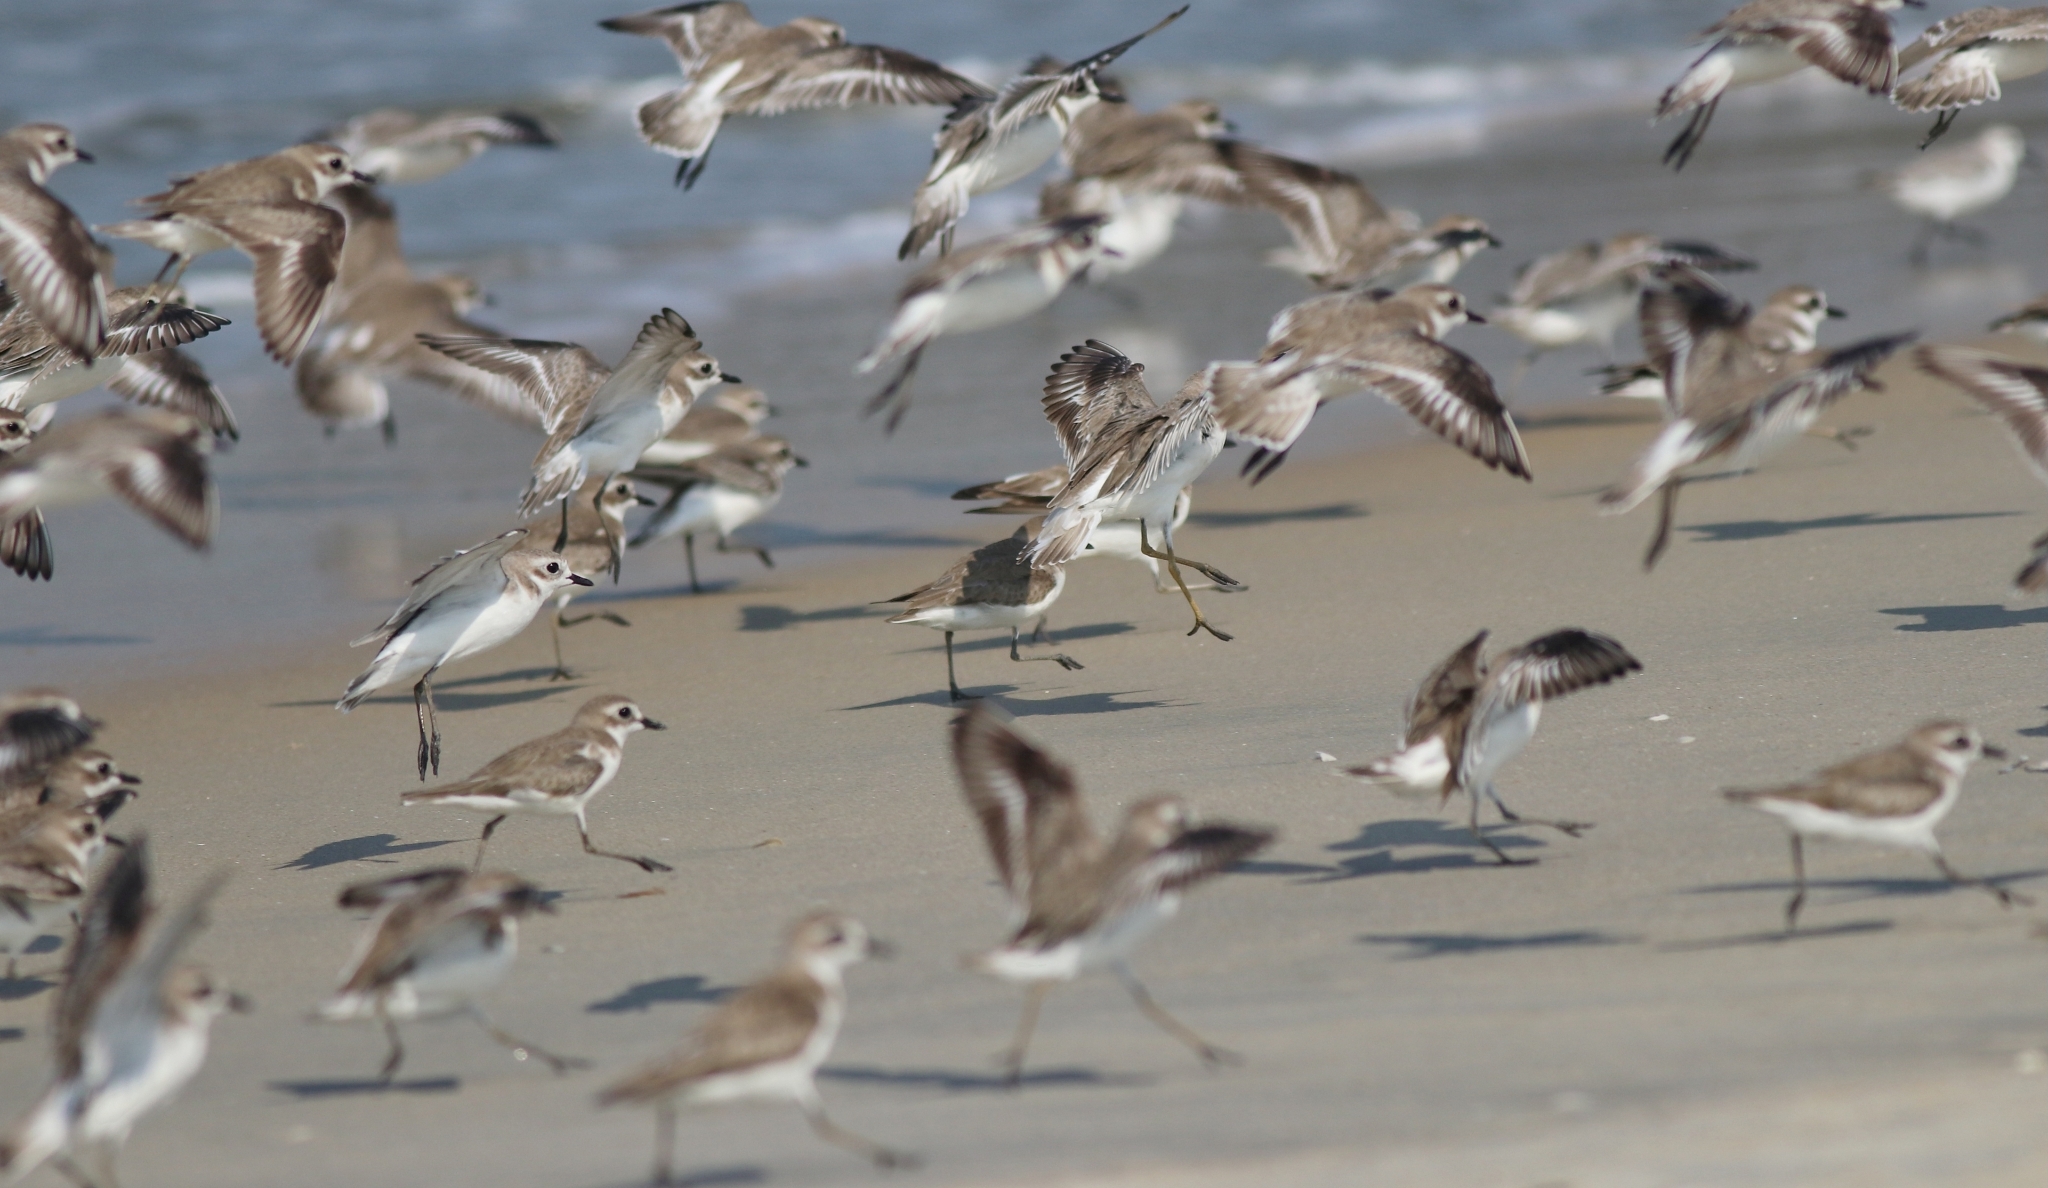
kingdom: Animalia
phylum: Chordata
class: Aves
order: Charadriiformes
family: Charadriidae
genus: Anarhynchus
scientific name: Anarhynchus
